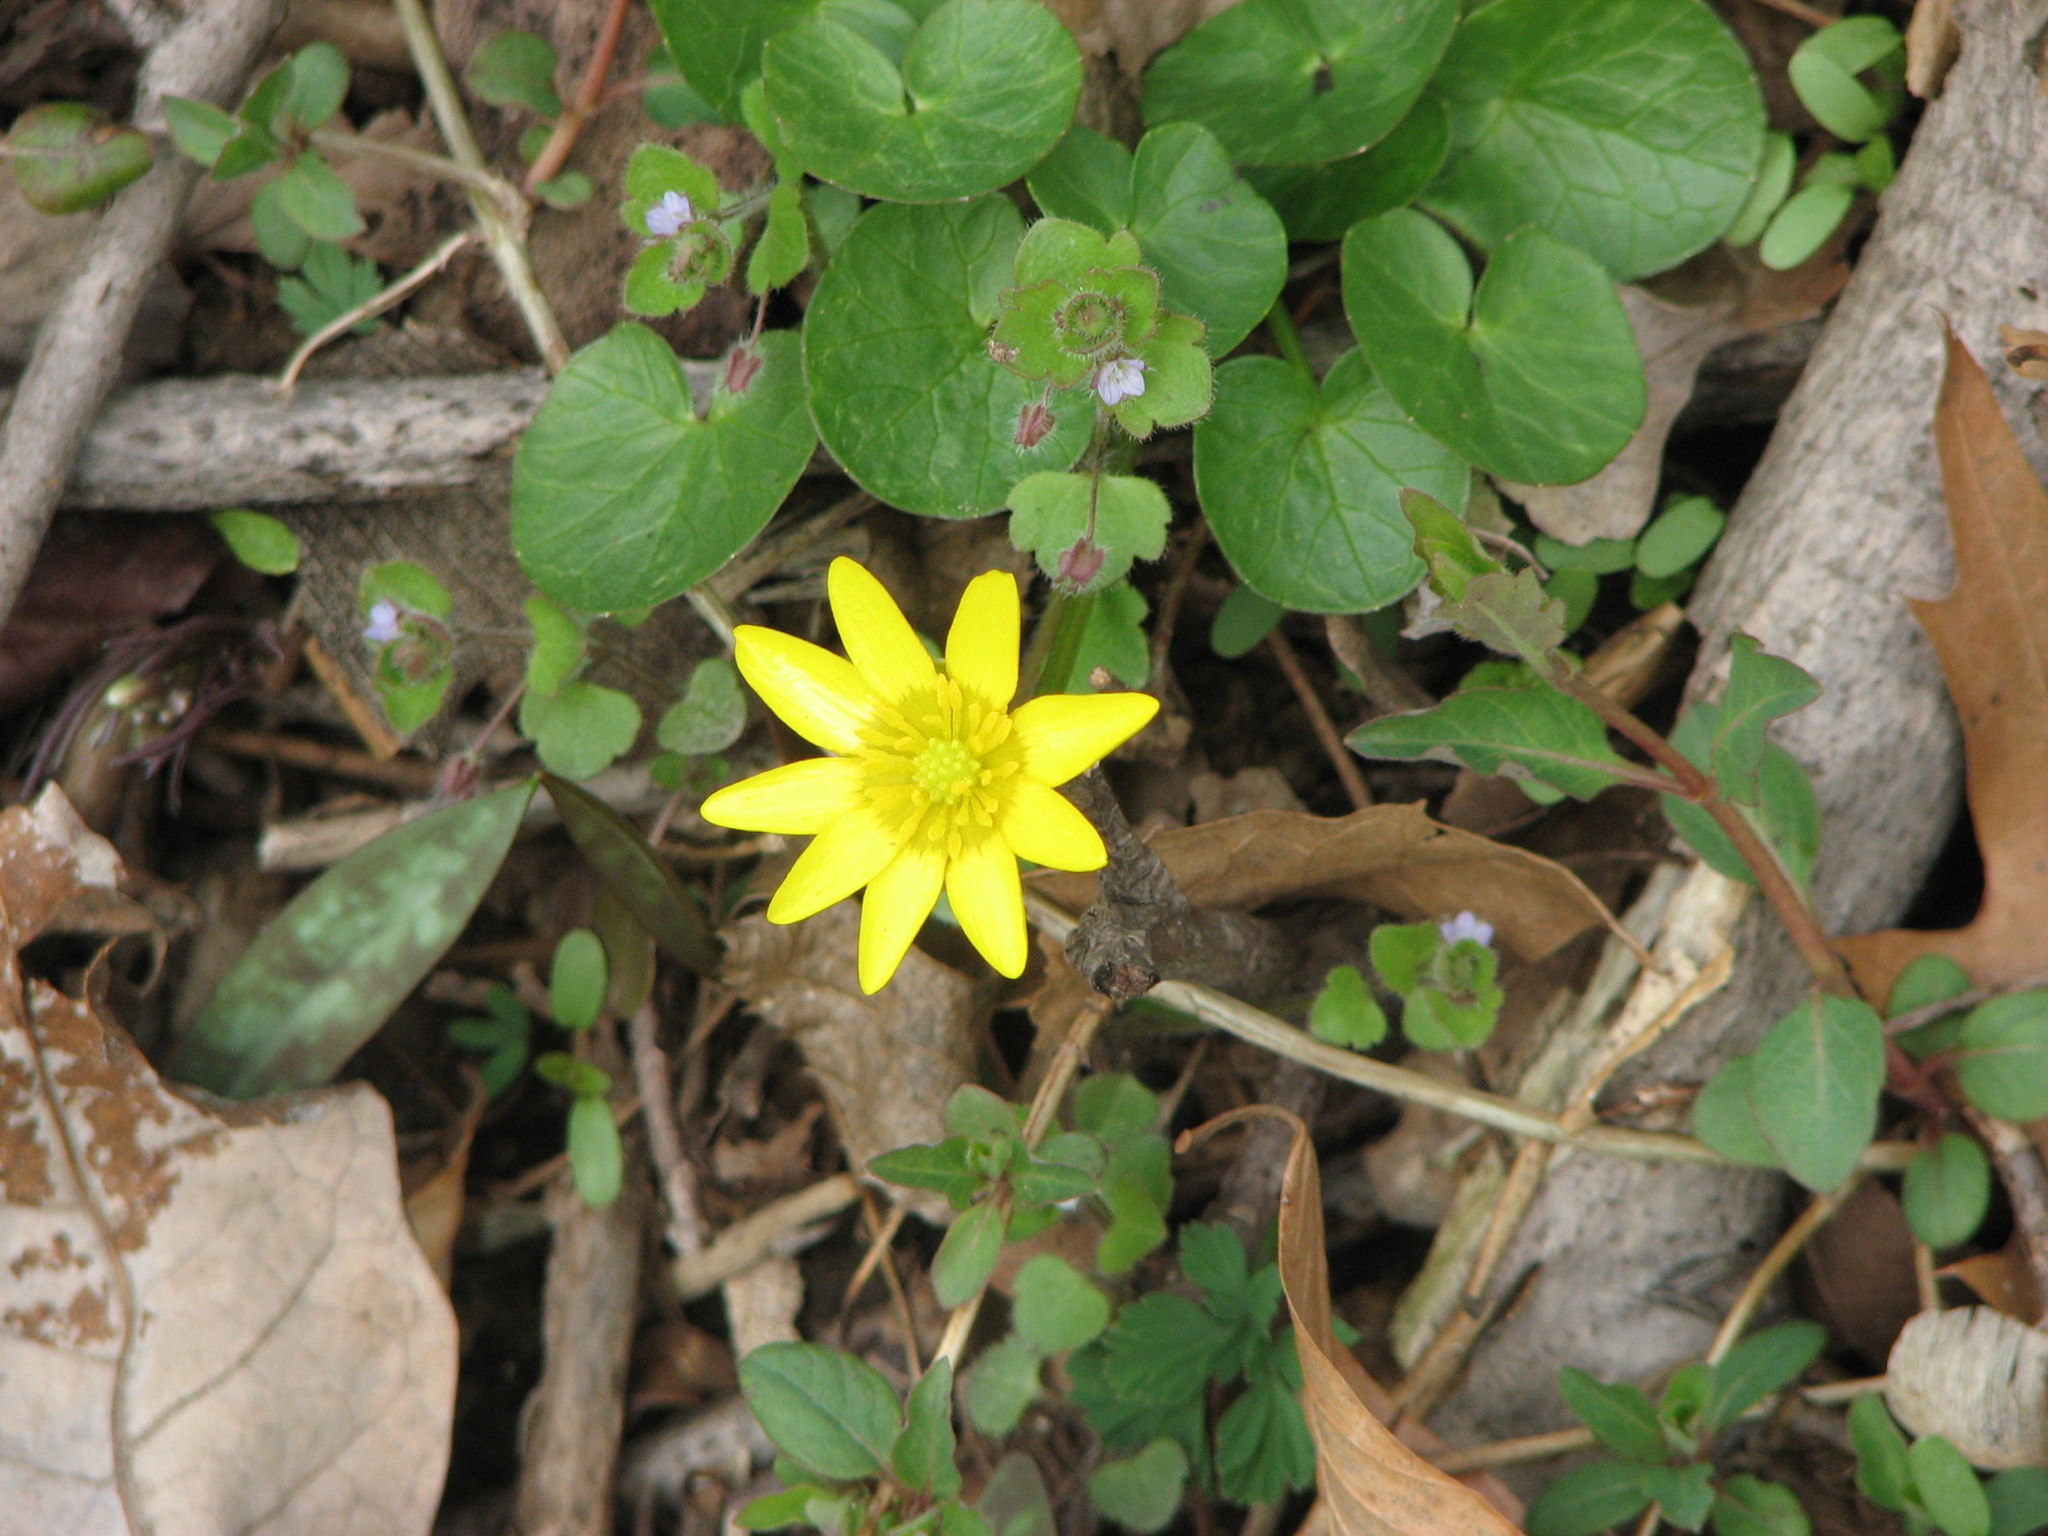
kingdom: Plantae
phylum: Tracheophyta
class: Magnoliopsida
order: Ranunculales
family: Ranunculaceae
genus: Ficaria
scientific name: Ficaria verna
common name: Lesser celandine
